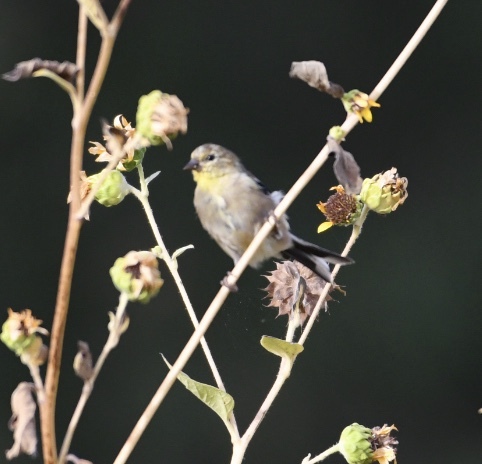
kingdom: Animalia
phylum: Chordata
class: Aves
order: Passeriformes
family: Fringillidae
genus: Spinus
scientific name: Spinus tristis
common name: American goldfinch
